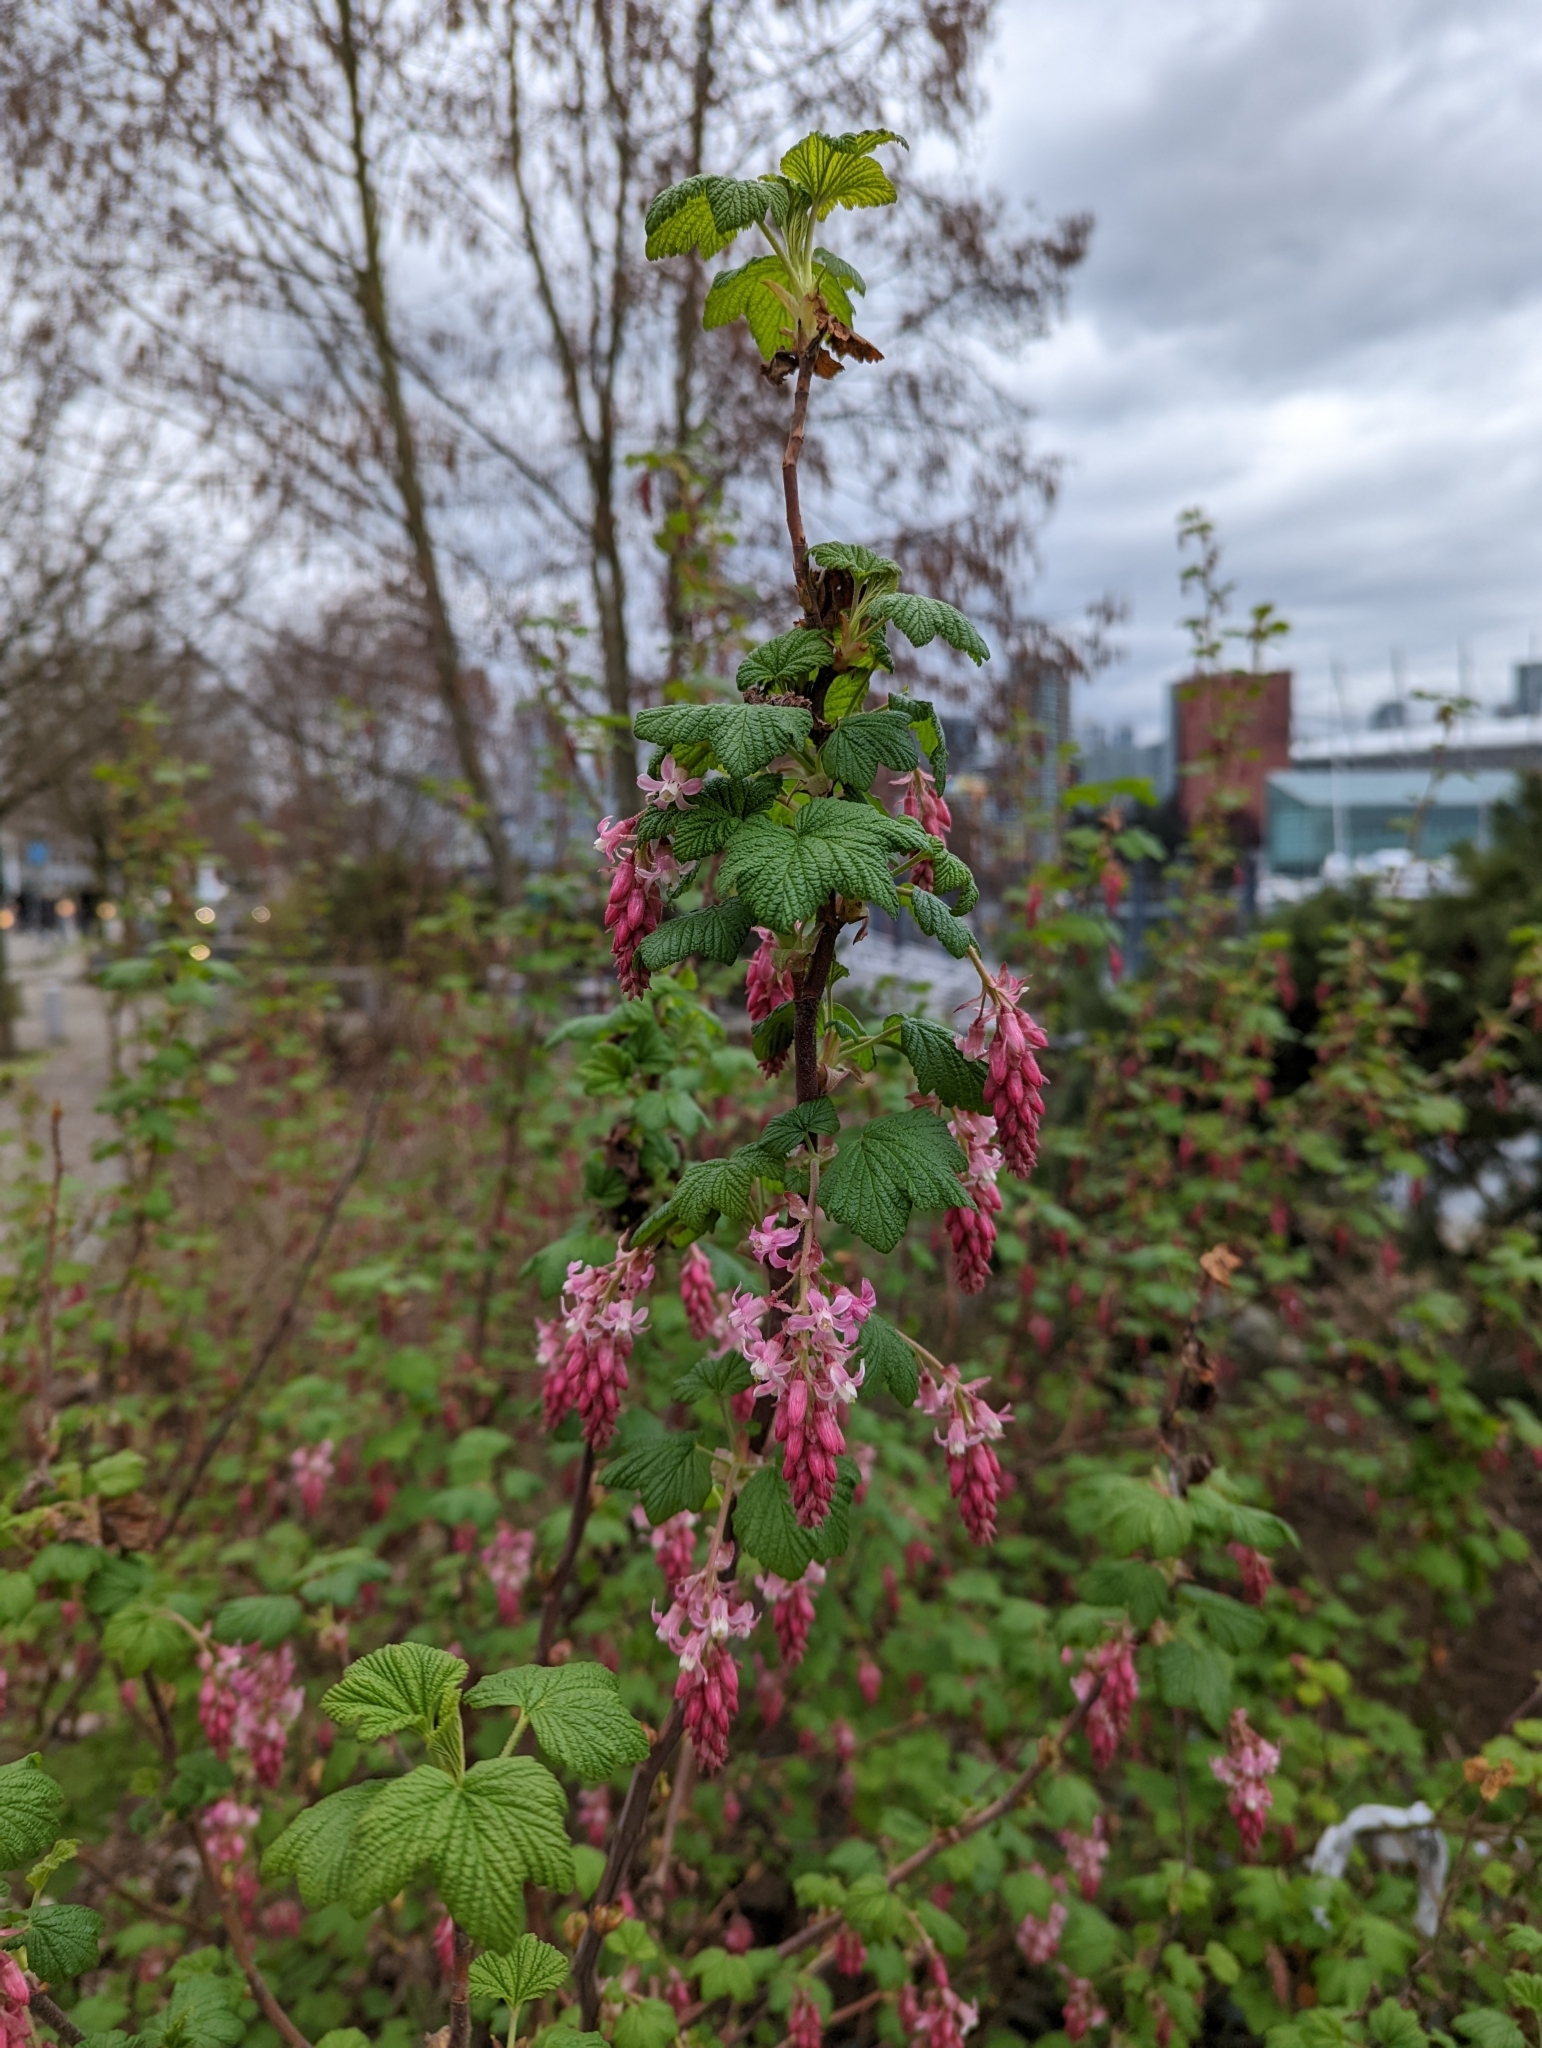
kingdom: Plantae
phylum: Tracheophyta
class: Magnoliopsida
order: Saxifragales
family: Grossulariaceae
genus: Ribes
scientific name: Ribes sanguineum
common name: Flowering currant
